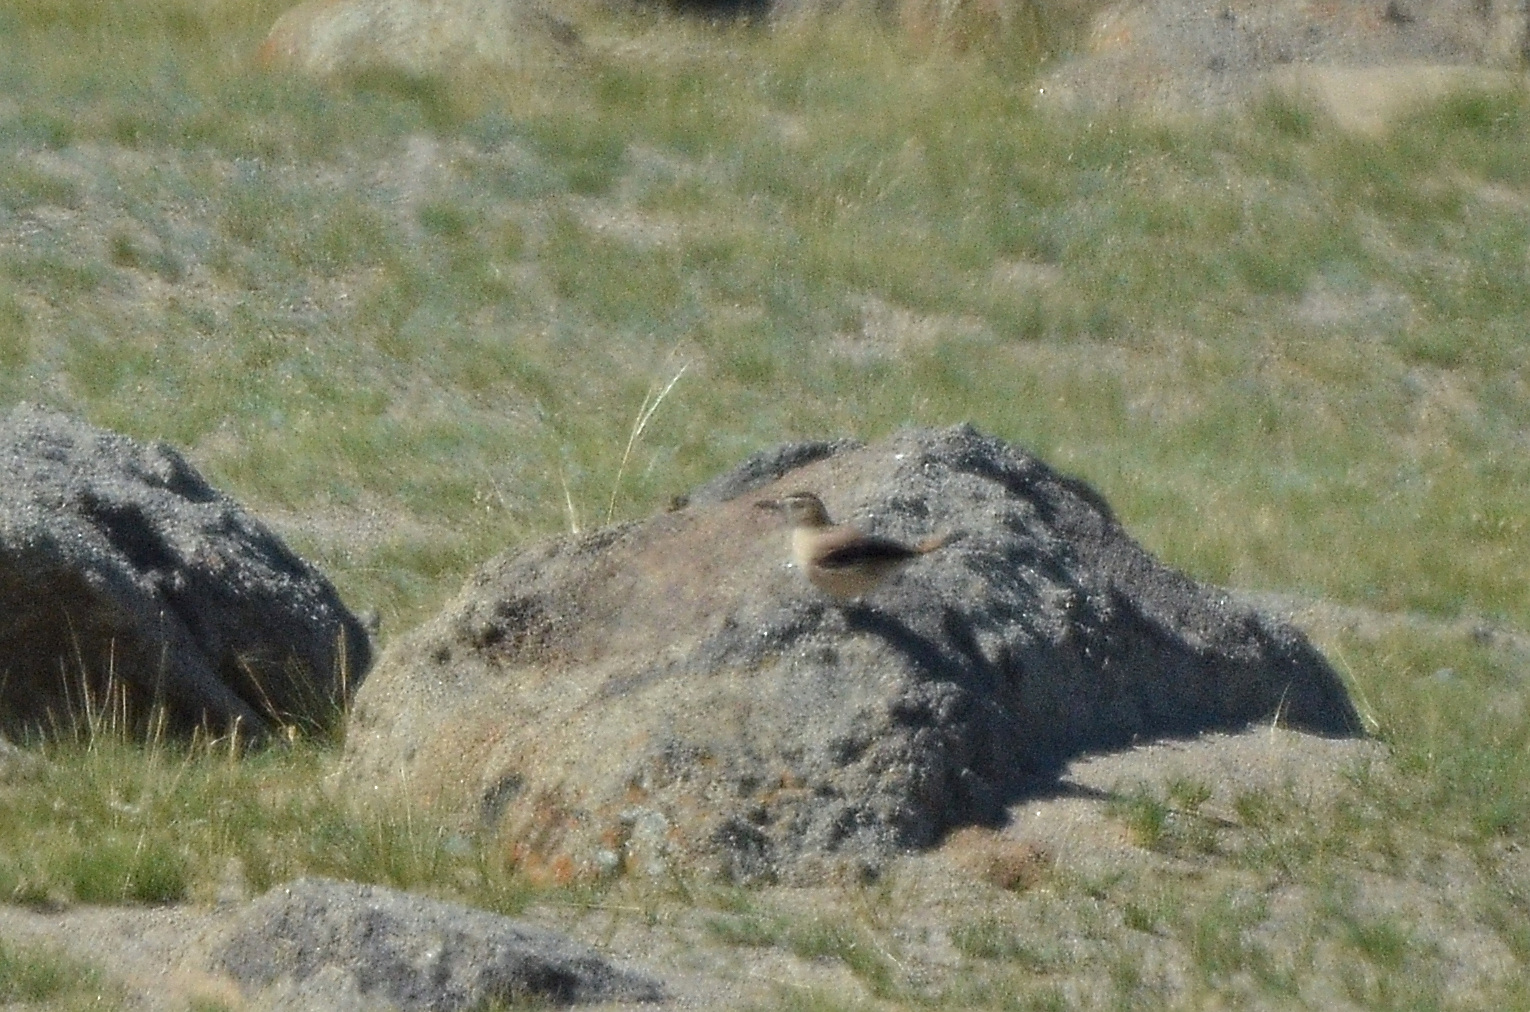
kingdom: Animalia
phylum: Chordata
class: Aves
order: Passeriformes
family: Corvidae
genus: Podoces
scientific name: Podoces hendersoni
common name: Henderson's ground jay
